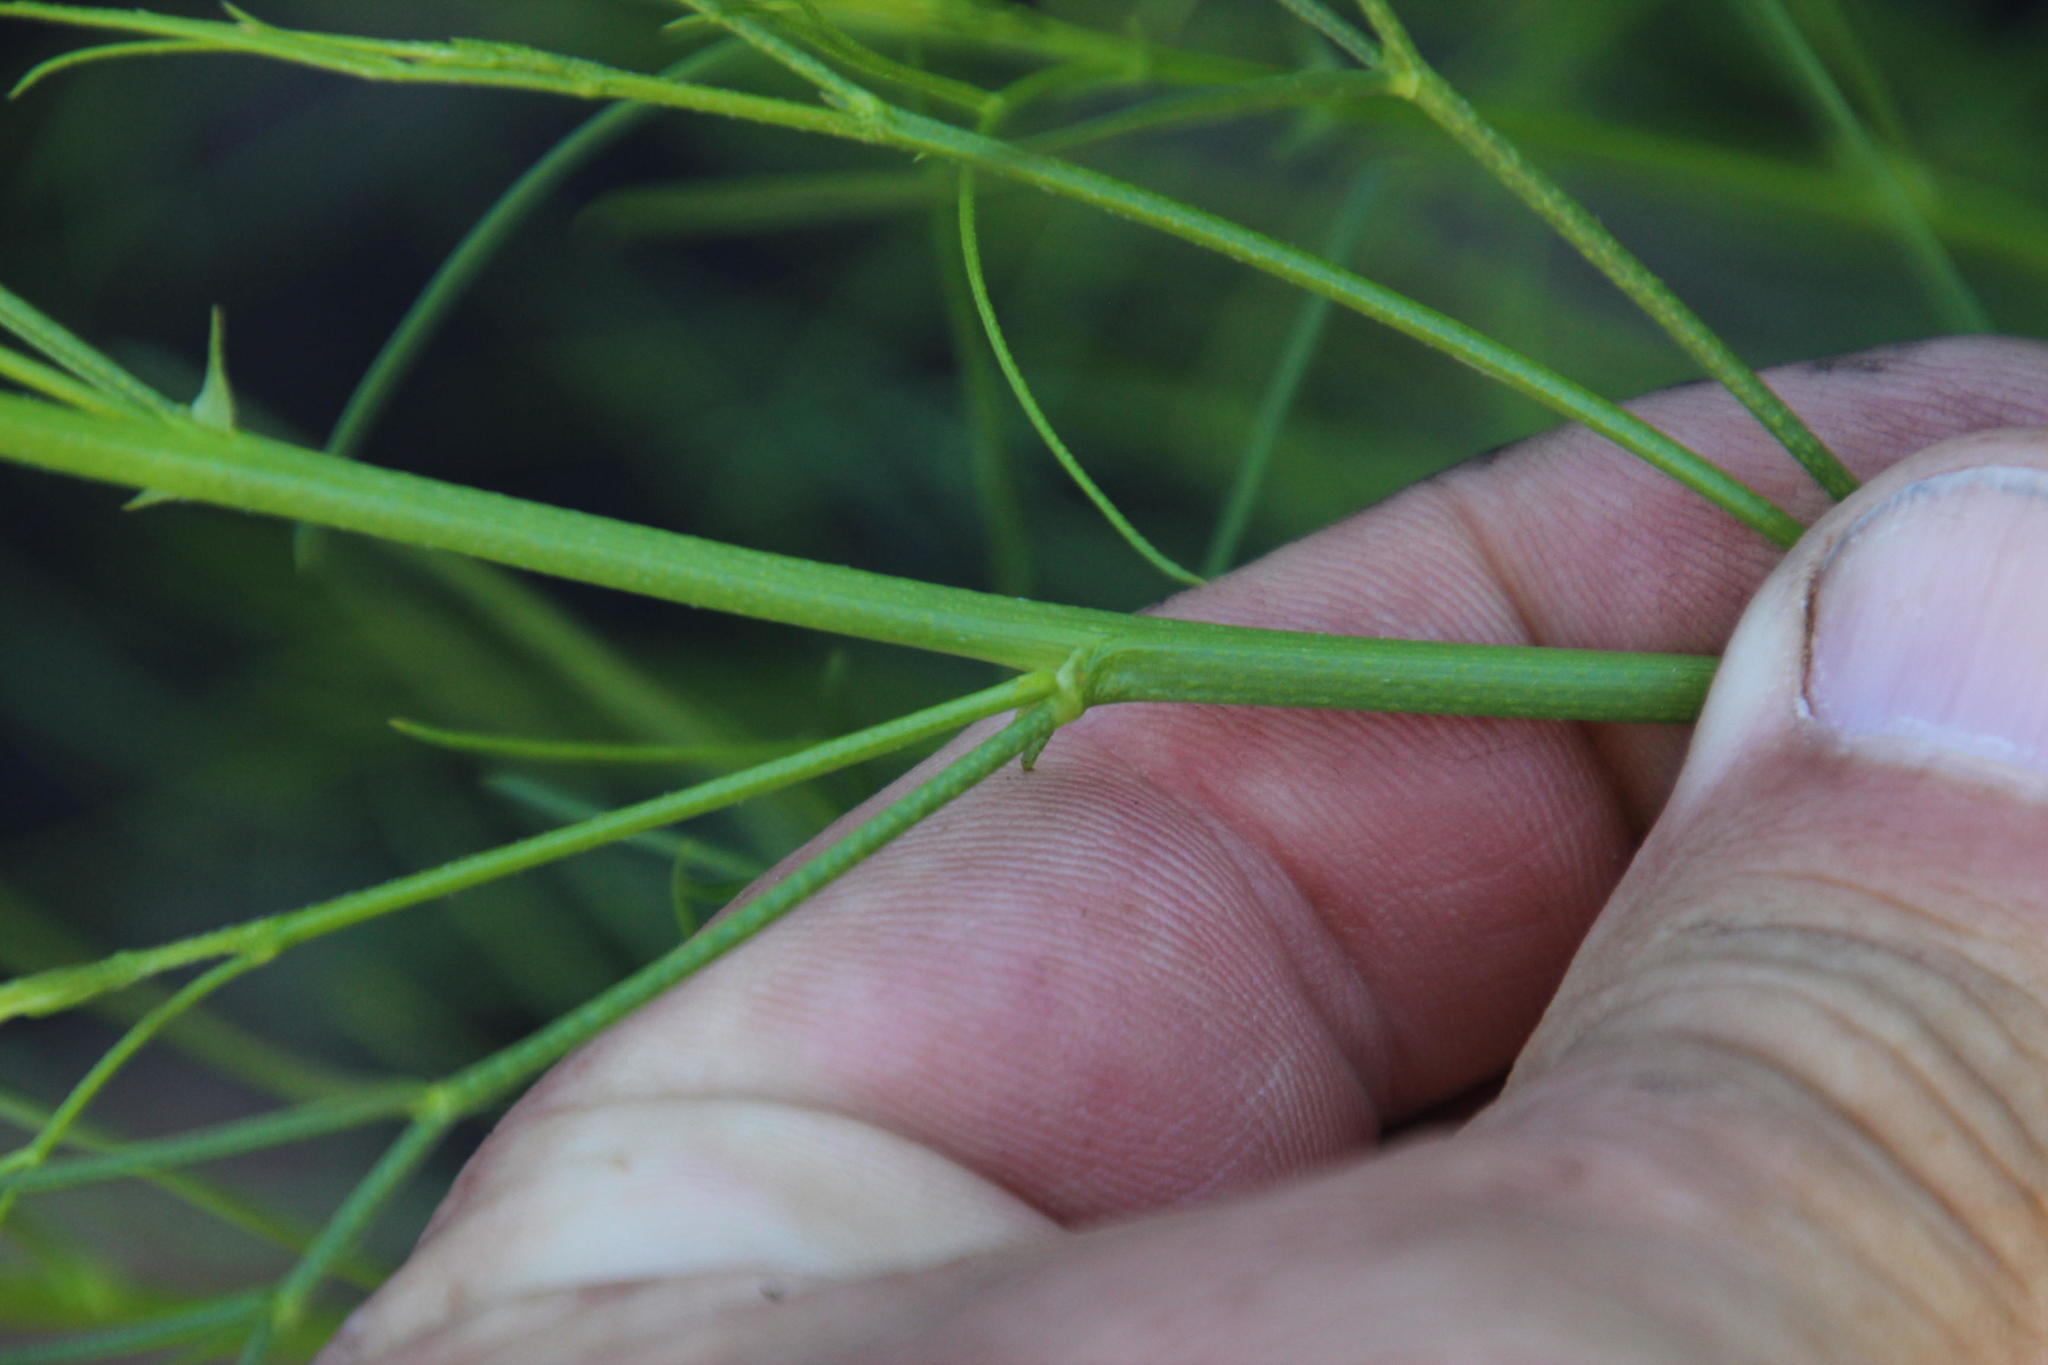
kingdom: Plantae
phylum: Tracheophyta
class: Magnoliopsida
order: Fabales
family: Fabaceae
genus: Psoralea
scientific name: Psoralea
